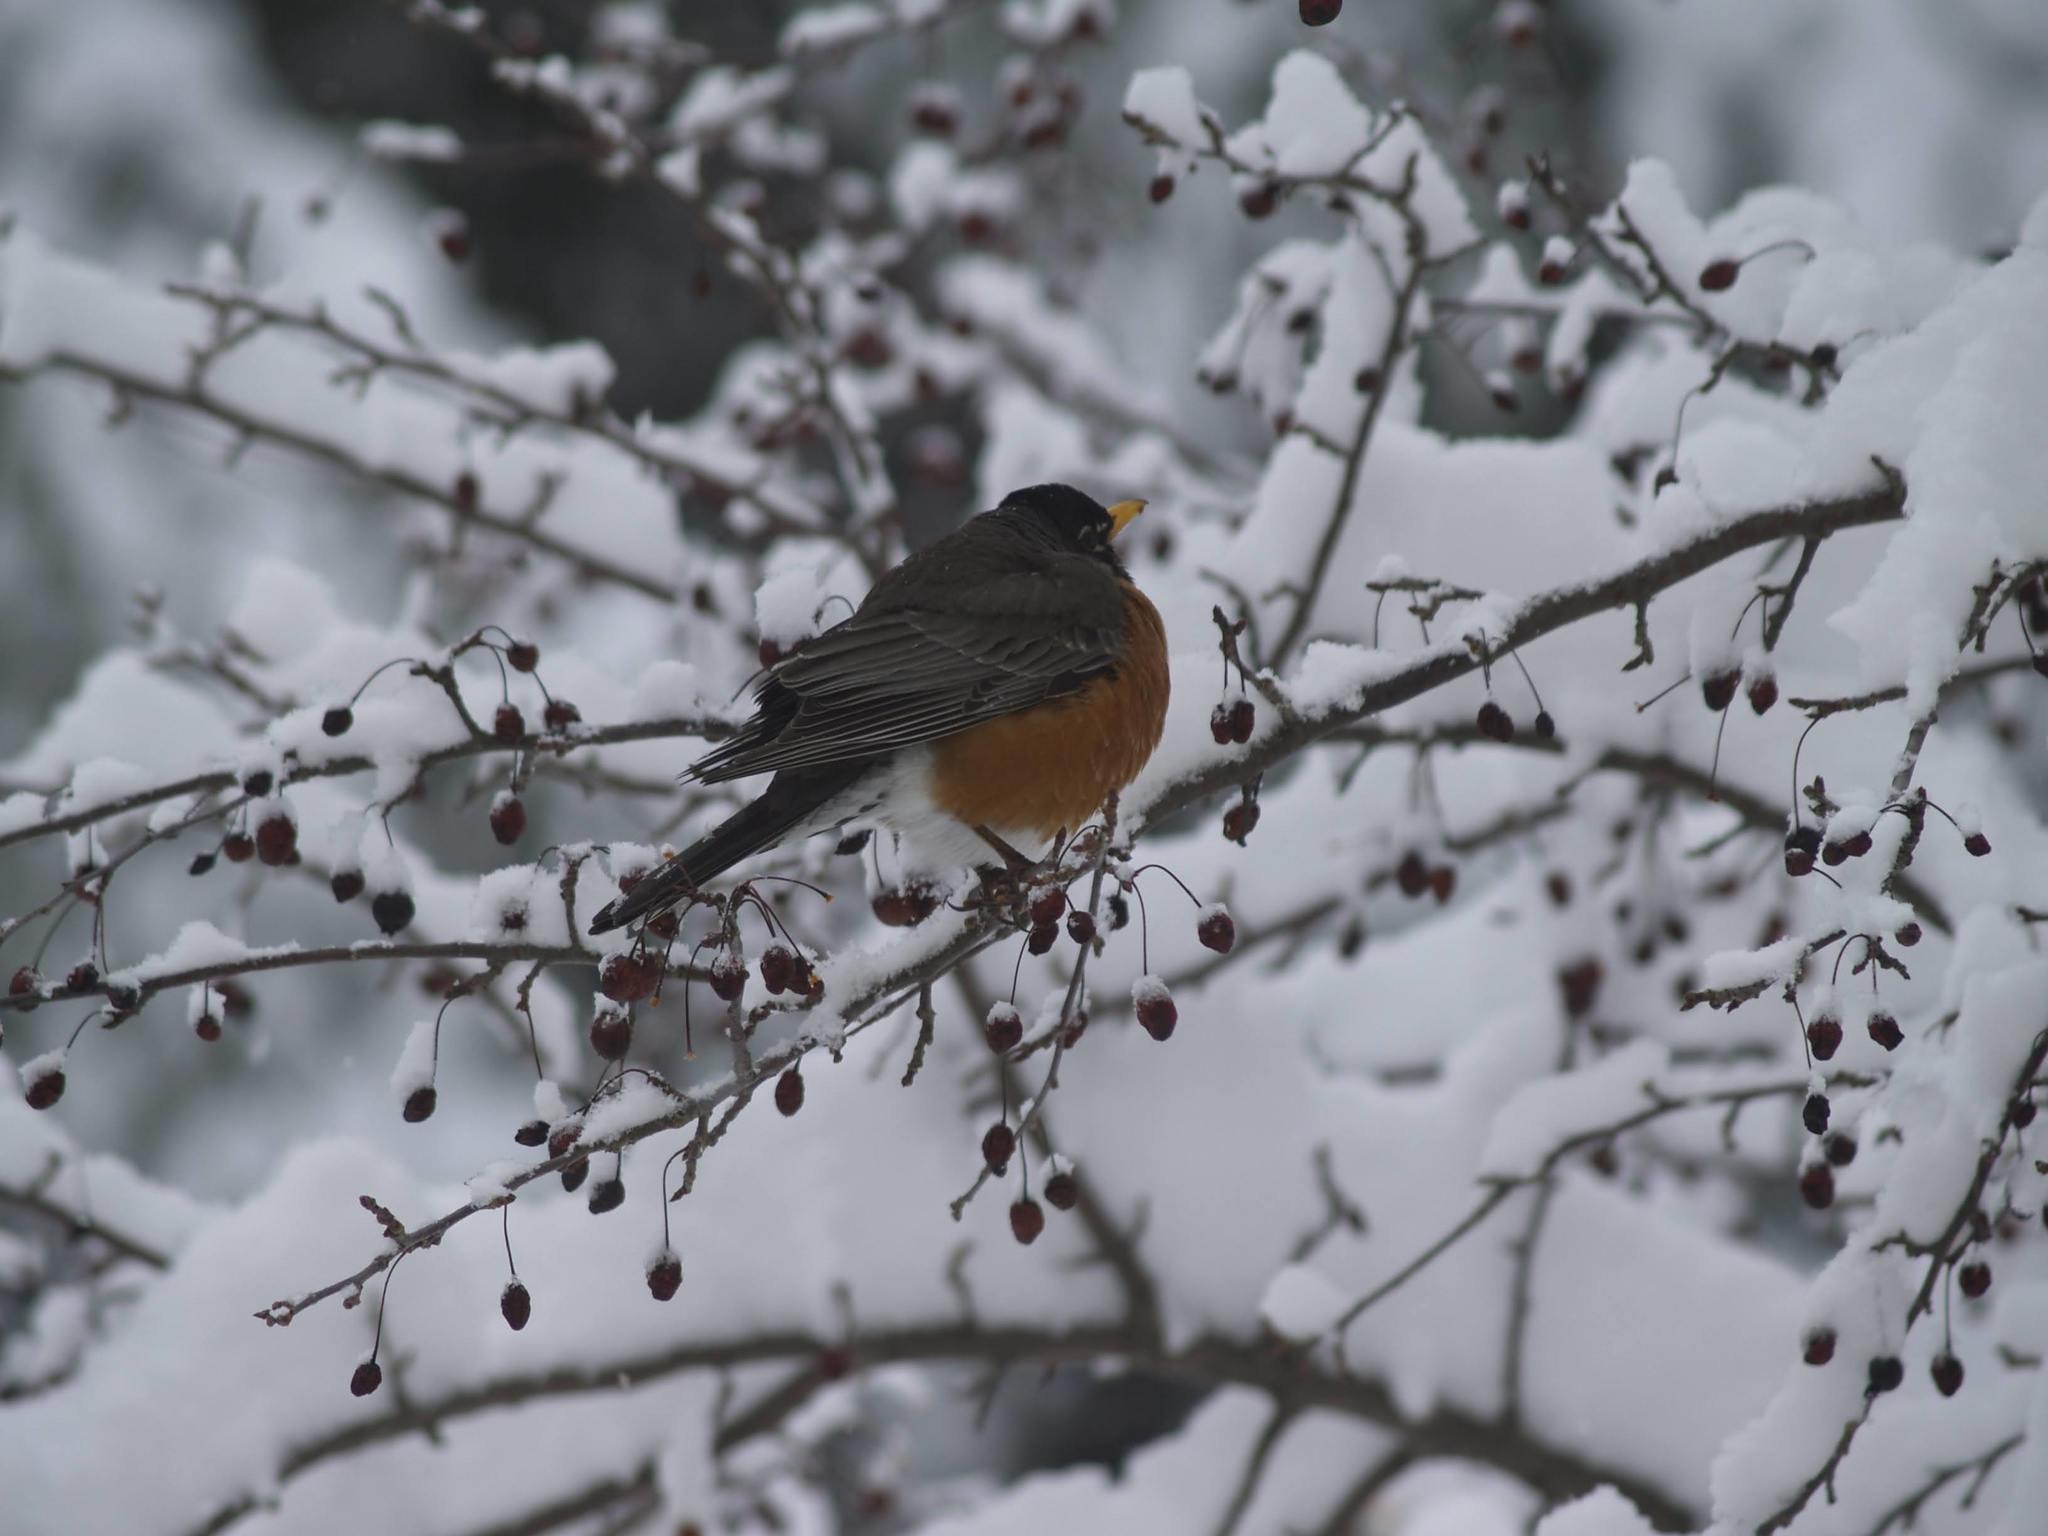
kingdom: Animalia
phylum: Chordata
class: Aves
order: Passeriformes
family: Turdidae
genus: Turdus
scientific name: Turdus migratorius
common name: American robin
